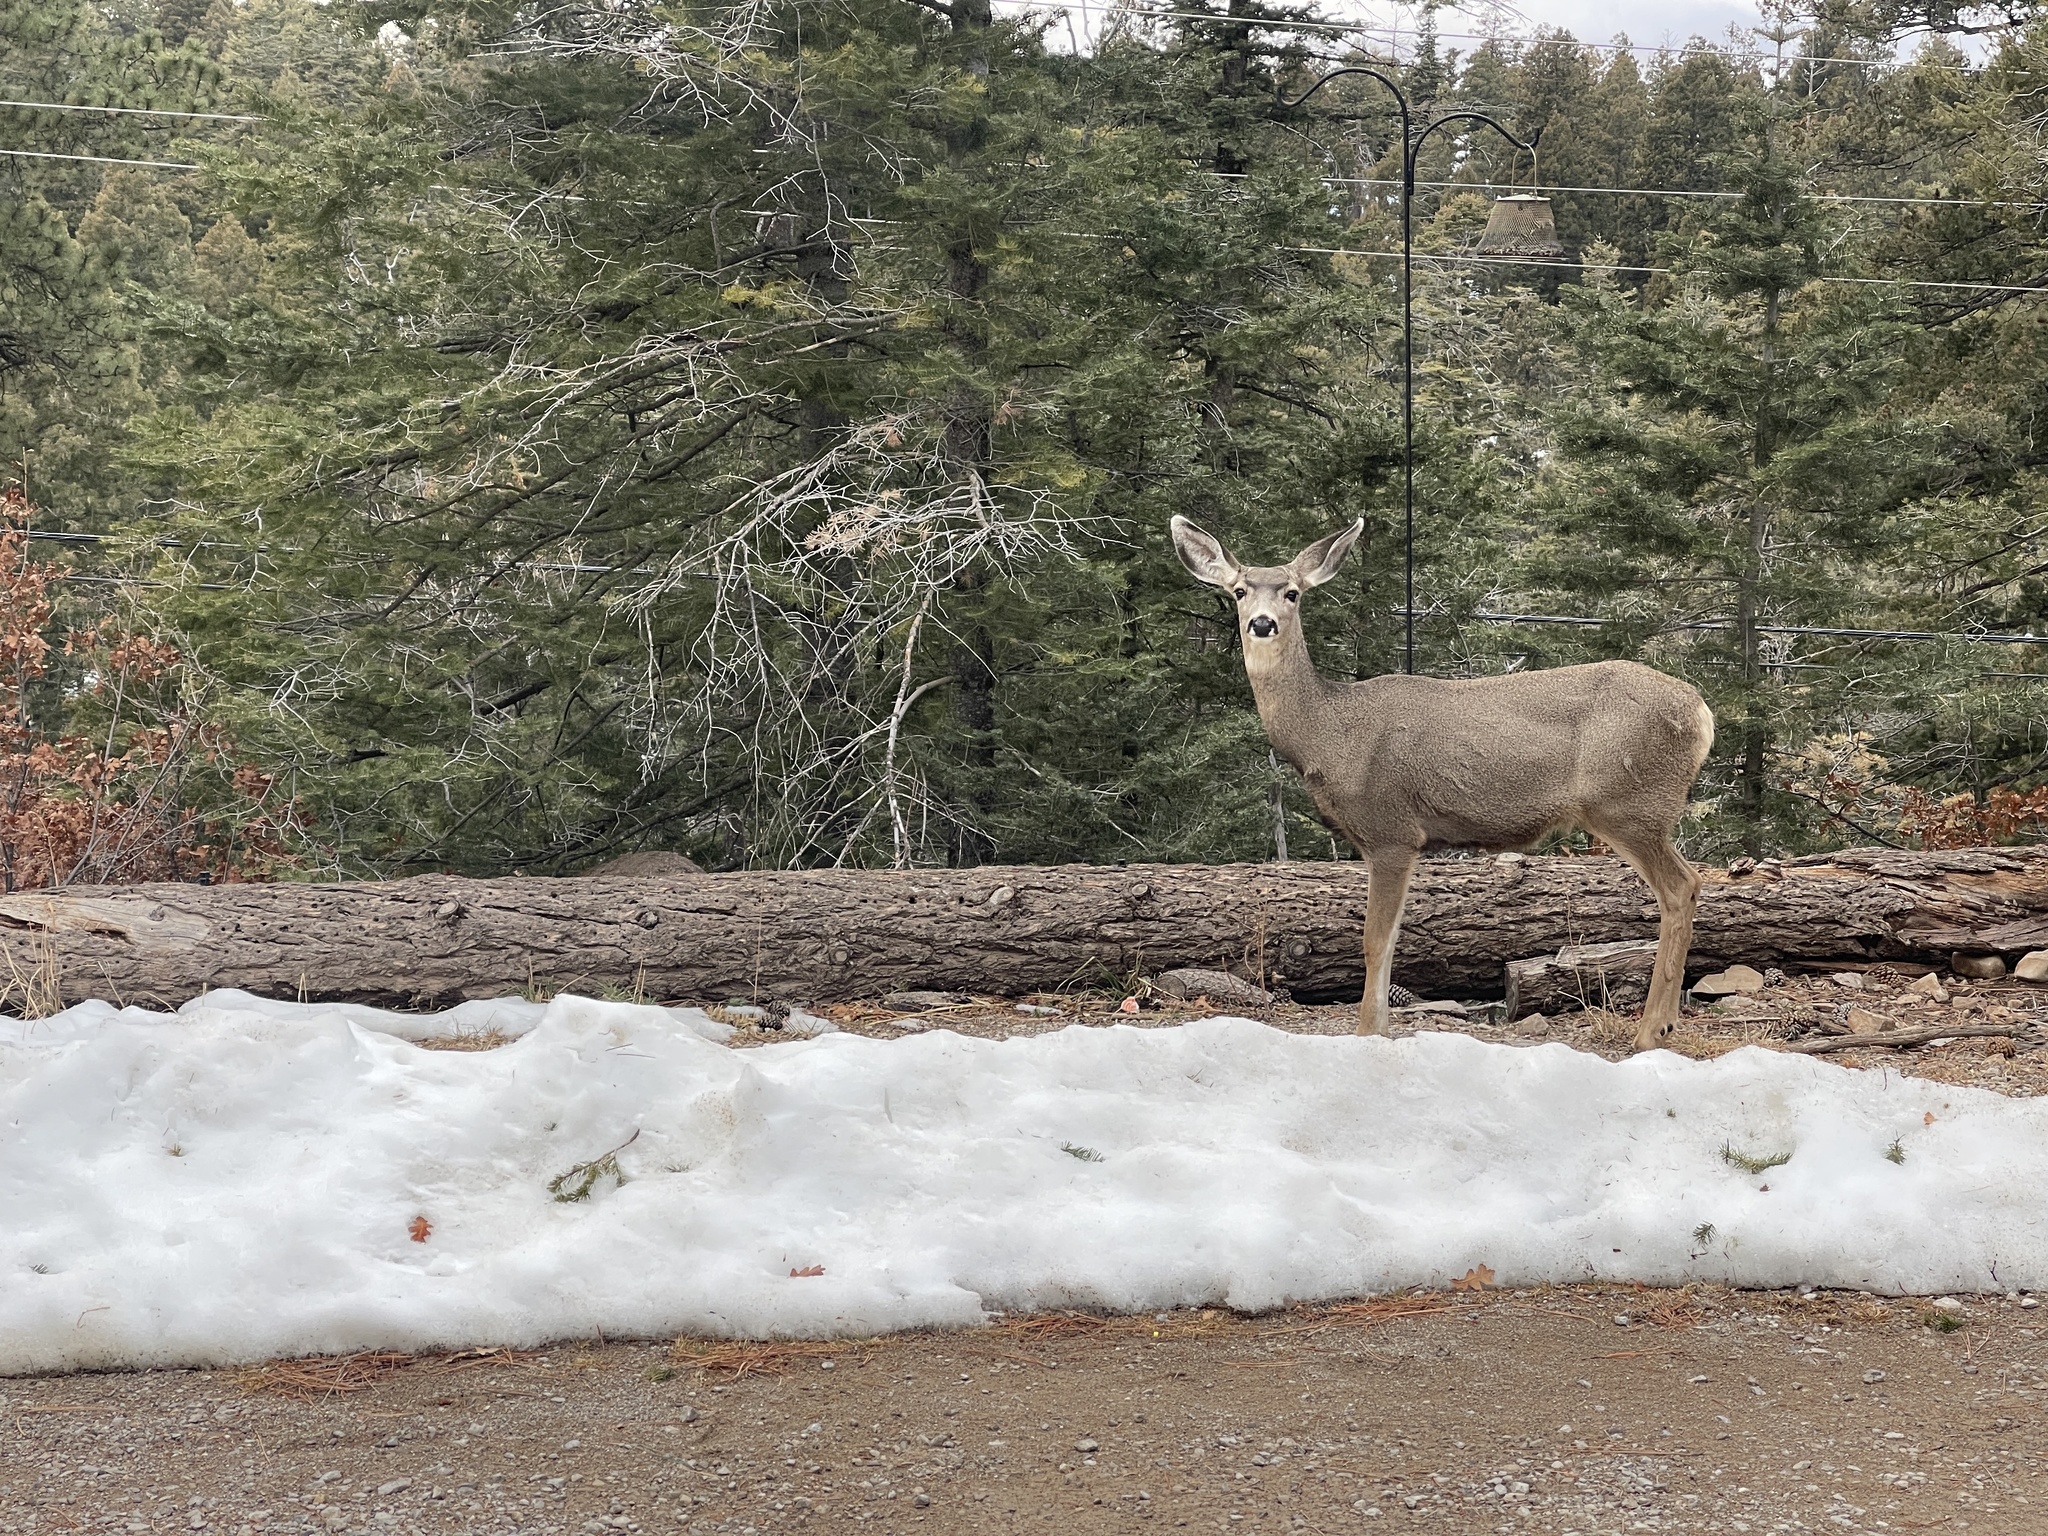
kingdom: Animalia
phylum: Chordata
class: Mammalia
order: Artiodactyla
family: Cervidae
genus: Odocoileus
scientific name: Odocoileus hemionus
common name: Mule deer
